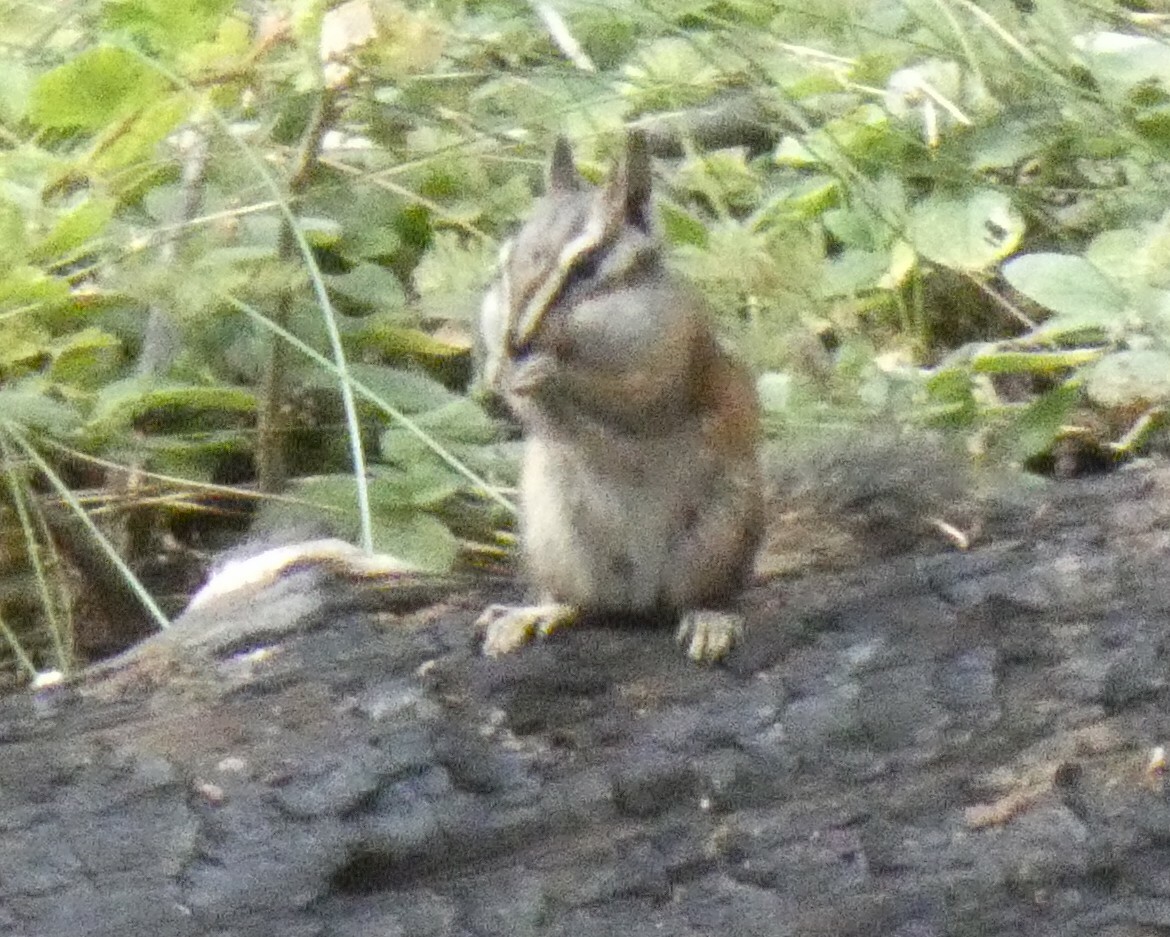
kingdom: Animalia
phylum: Chordata
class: Mammalia
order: Rodentia
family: Sciuridae
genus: Tamias
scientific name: Tamias speciosus
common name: Lodgepole chipmunk
